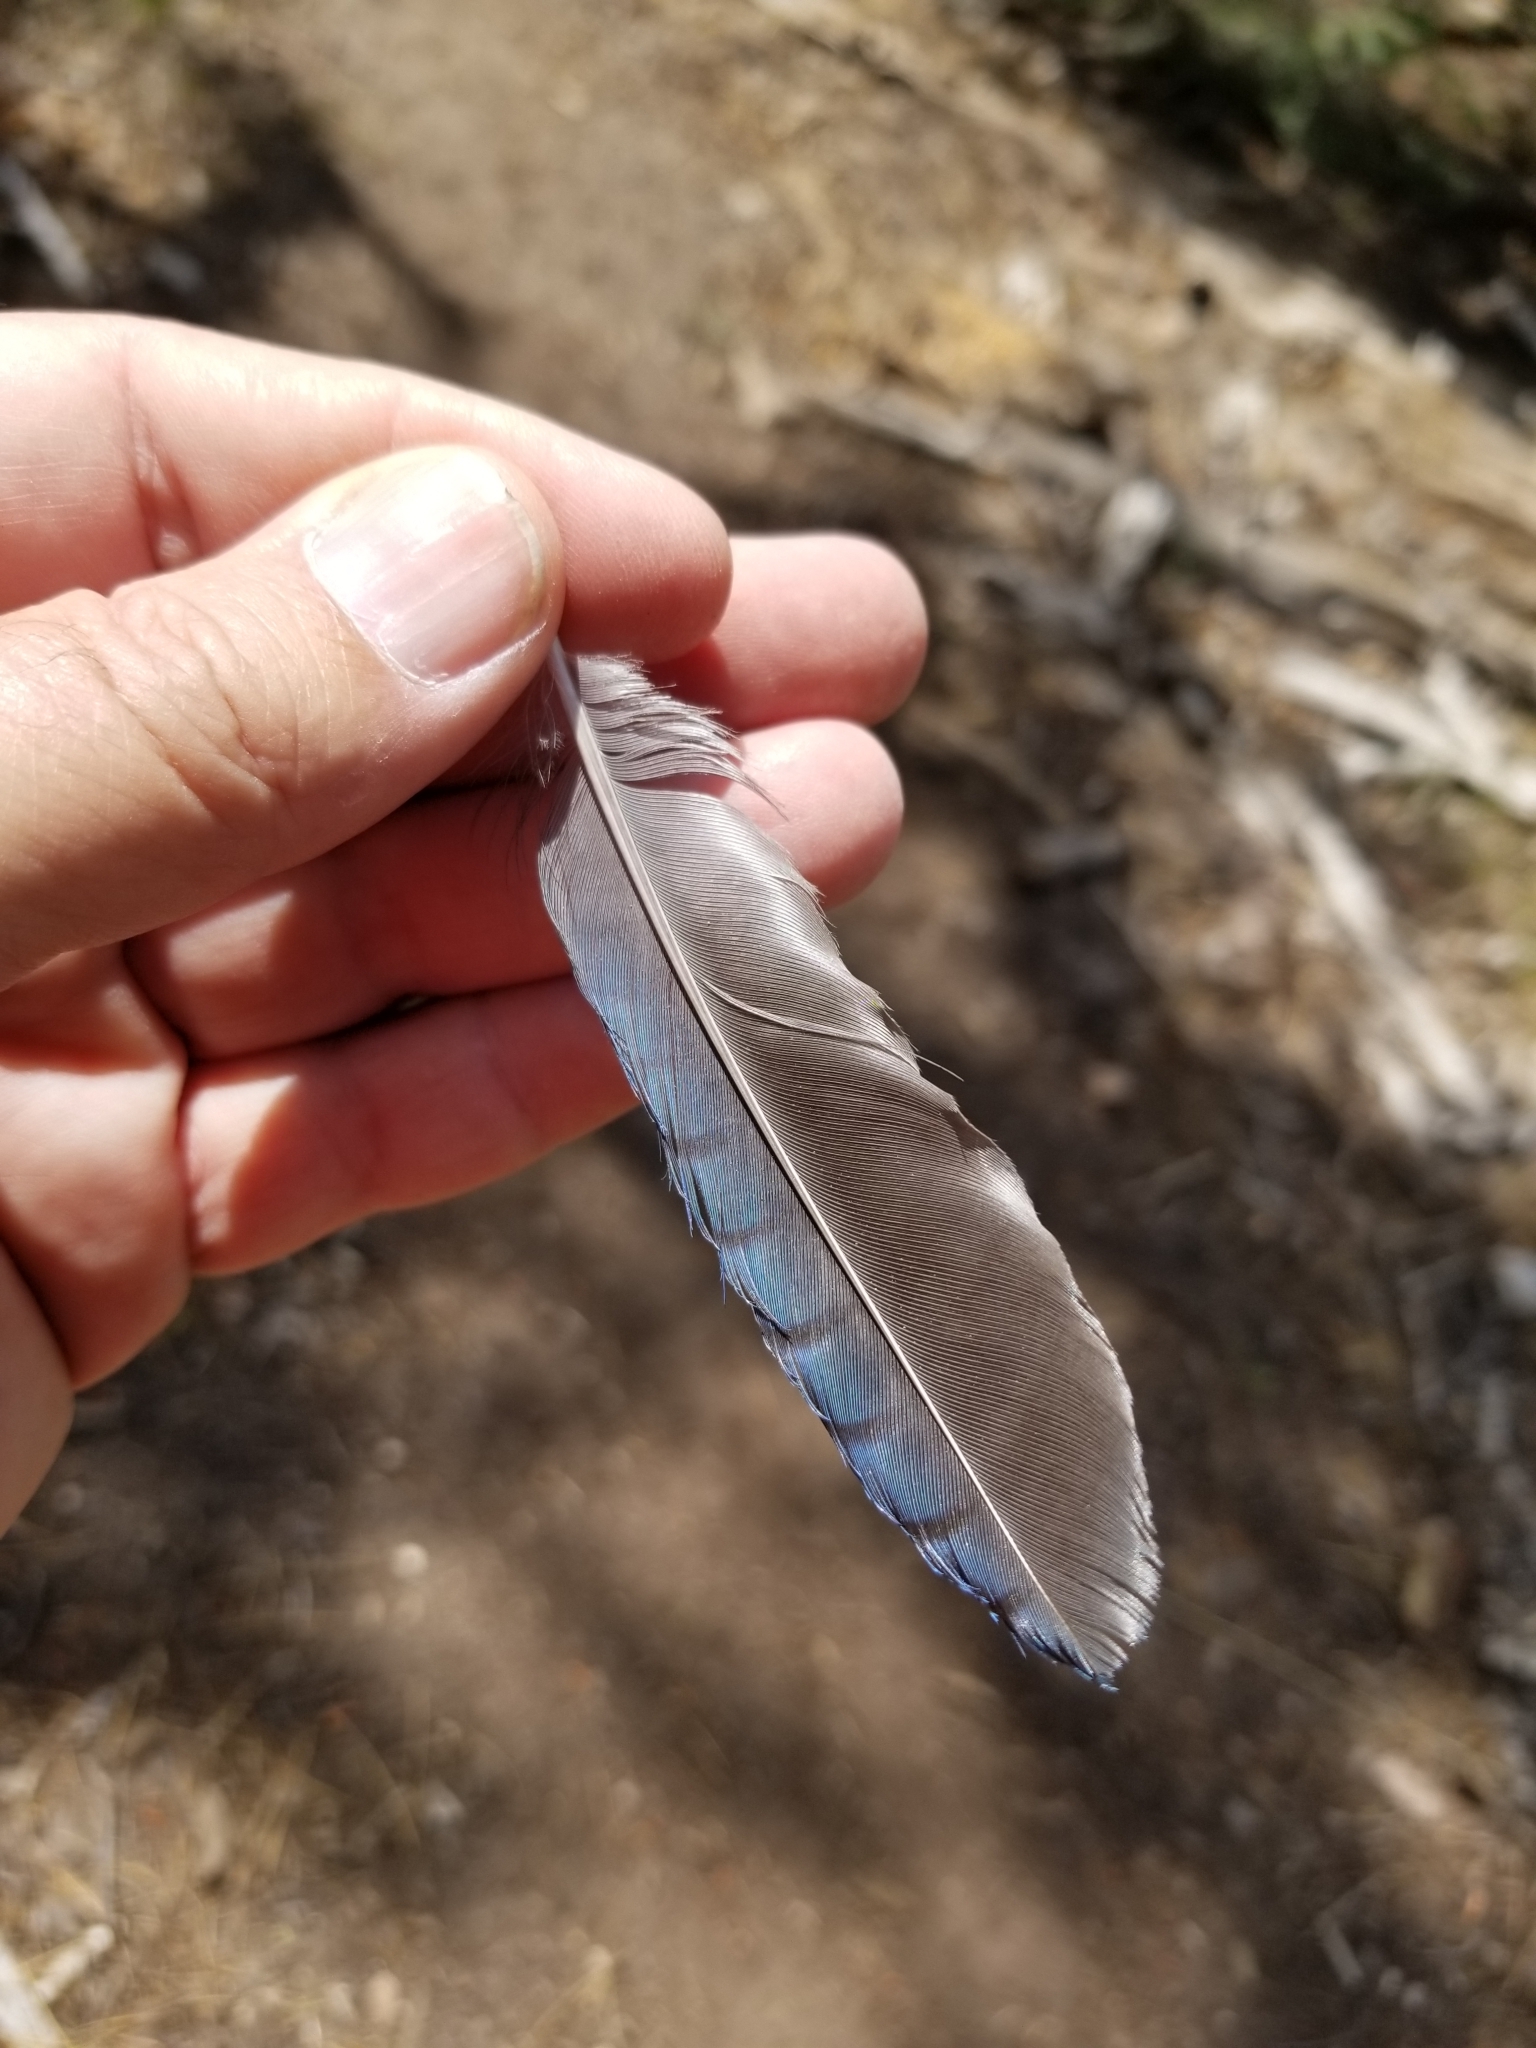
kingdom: Animalia
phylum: Chordata
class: Aves
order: Passeriformes
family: Corvidae
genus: Cyanocitta
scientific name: Cyanocitta stelleri
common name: Steller's jay
